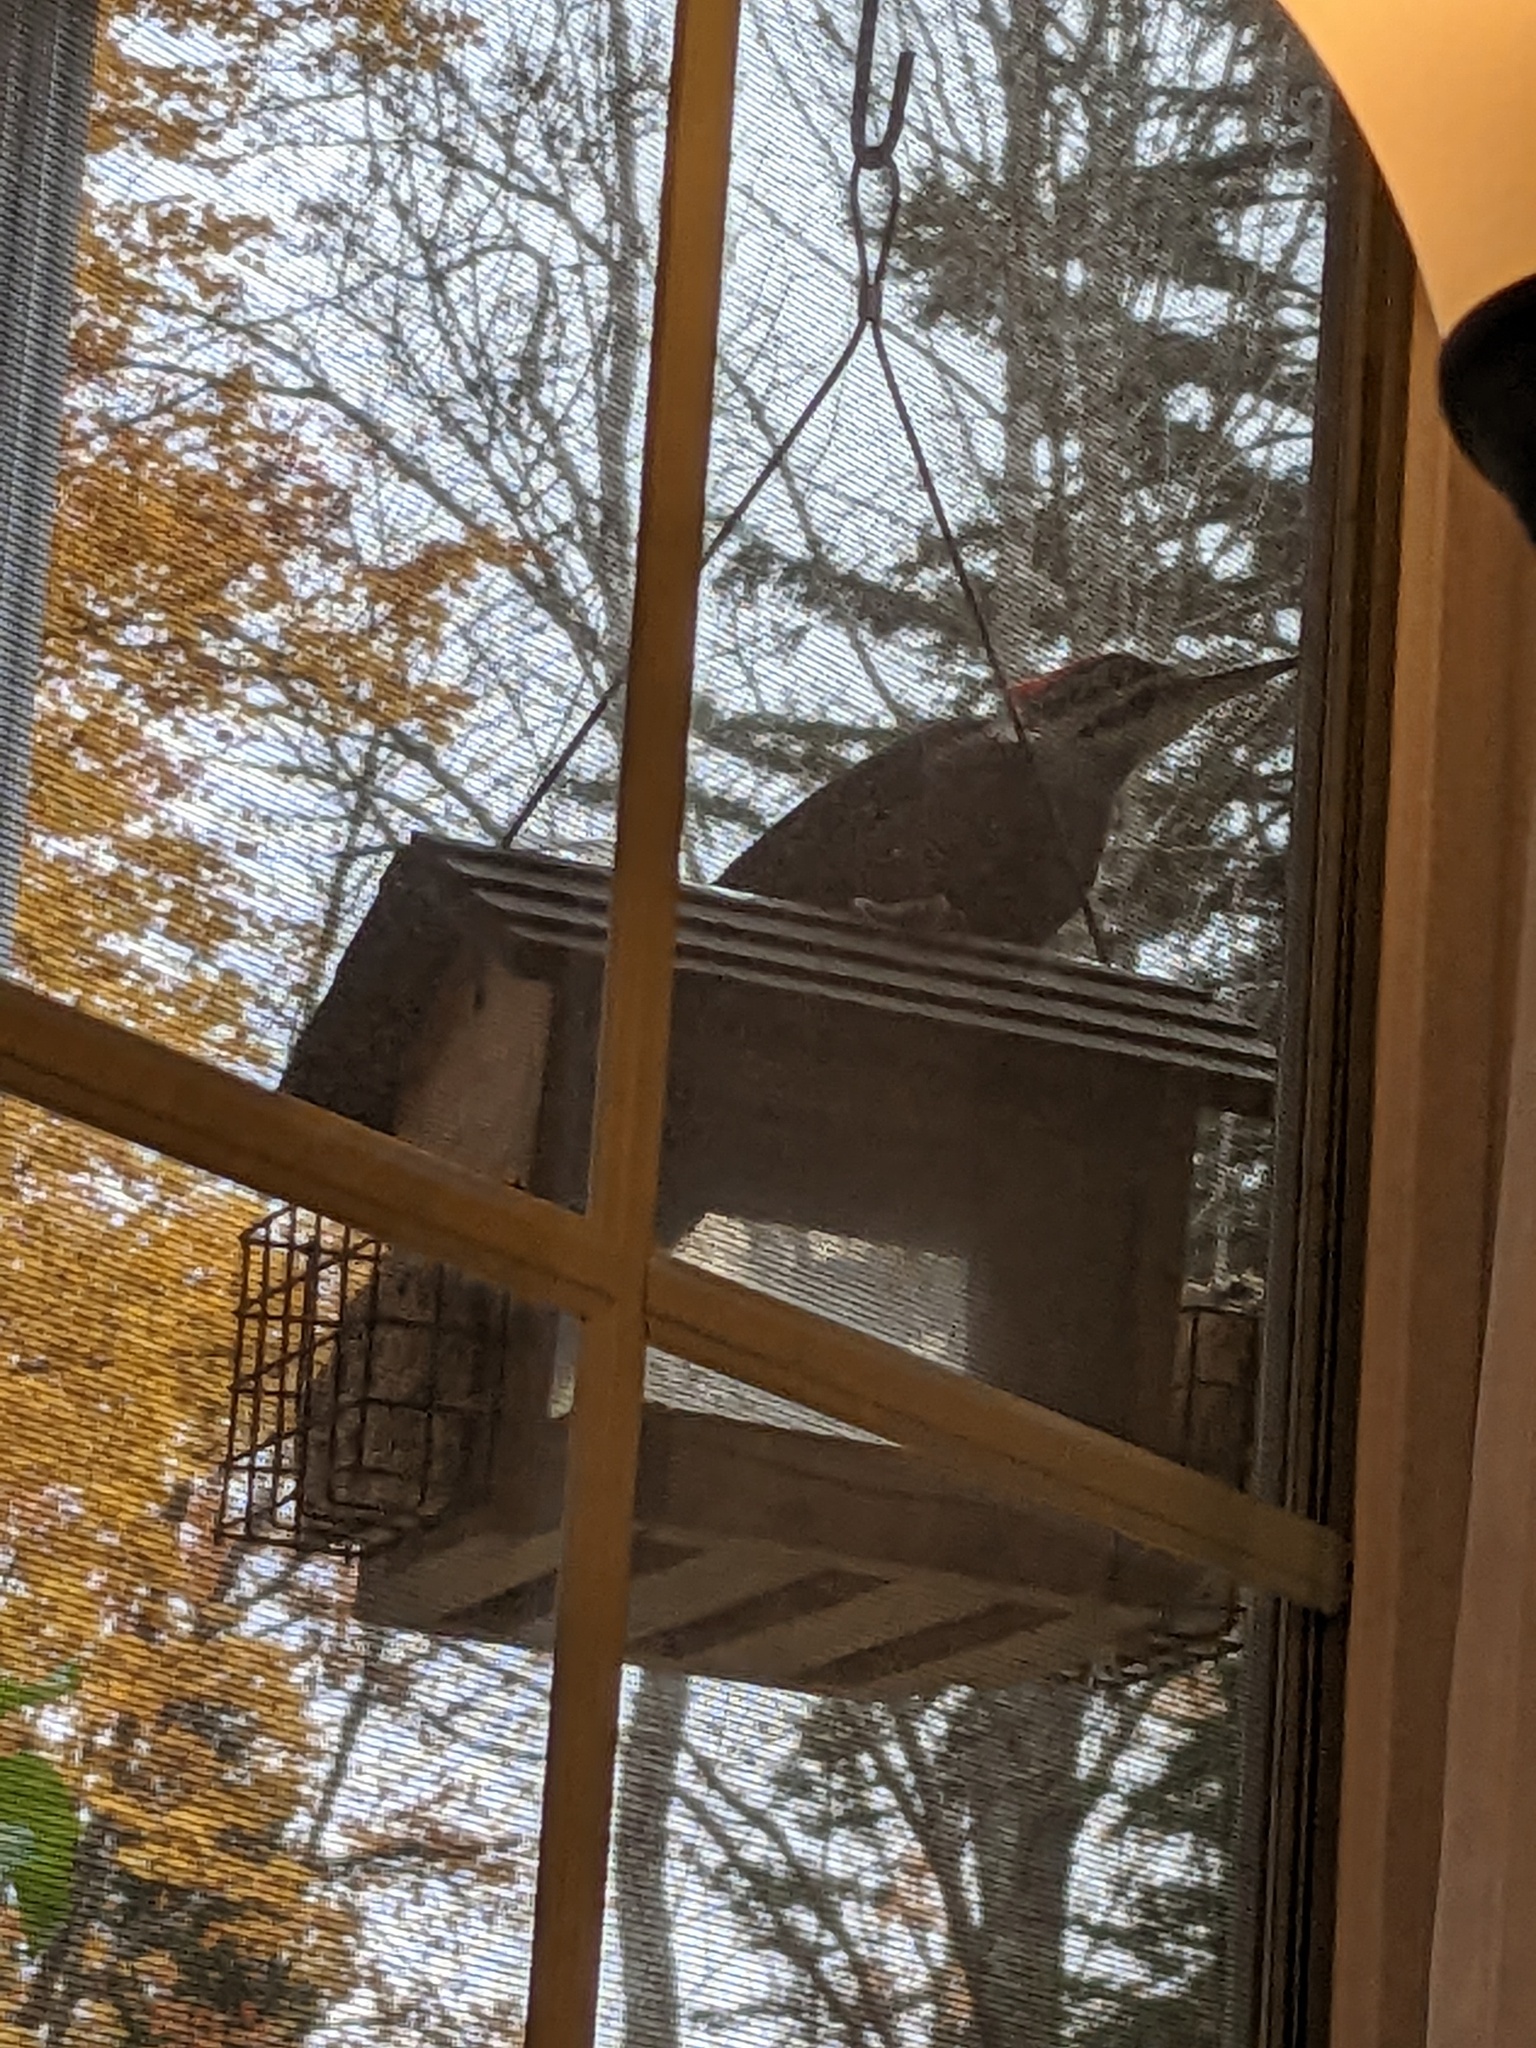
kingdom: Animalia
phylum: Chordata
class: Aves
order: Piciformes
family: Picidae
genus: Dryocopus
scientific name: Dryocopus pileatus
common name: Pileated woodpecker
